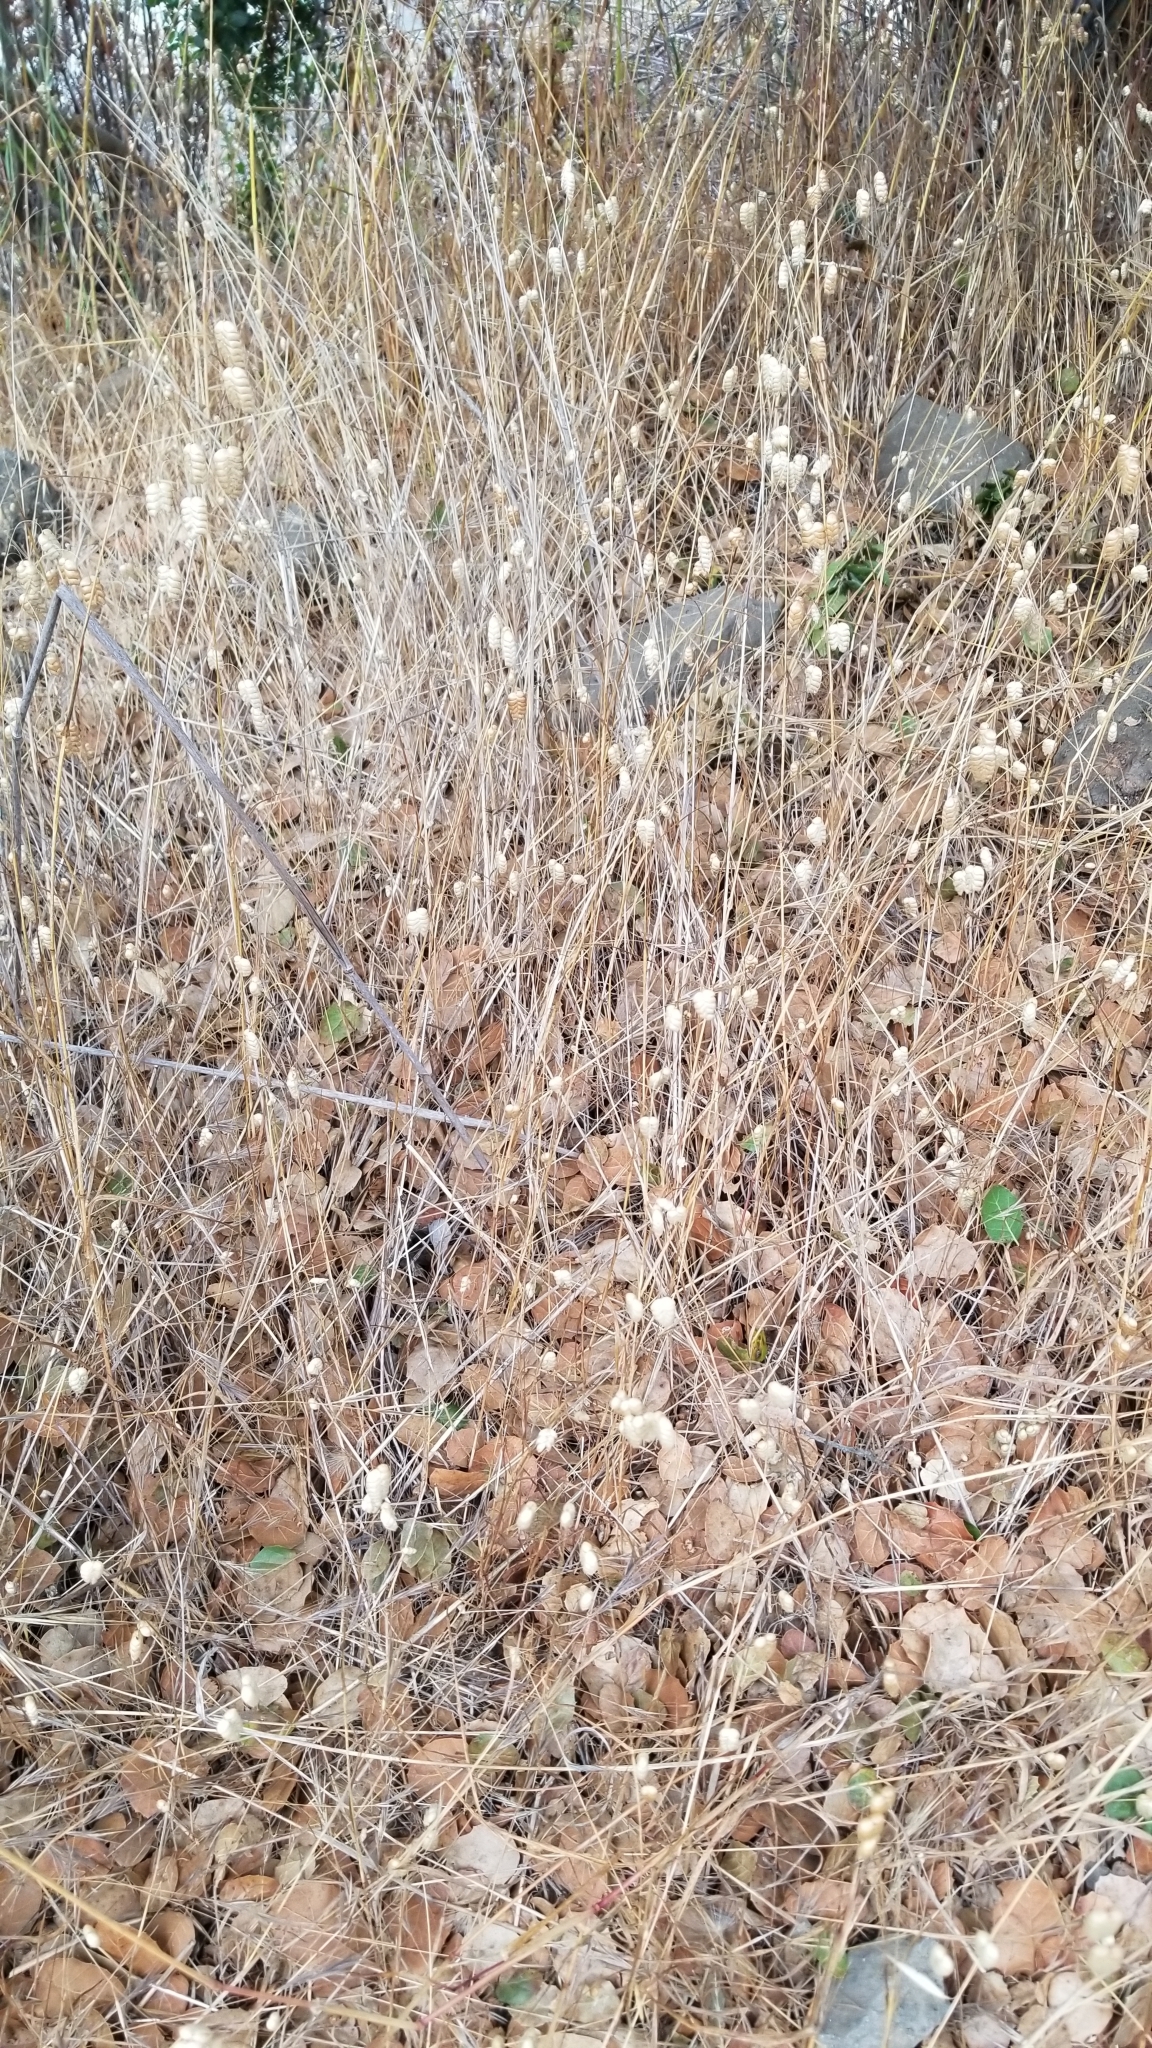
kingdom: Plantae
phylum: Tracheophyta
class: Liliopsida
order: Poales
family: Poaceae
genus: Briza
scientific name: Briza maxima
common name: Big quakinggrass
